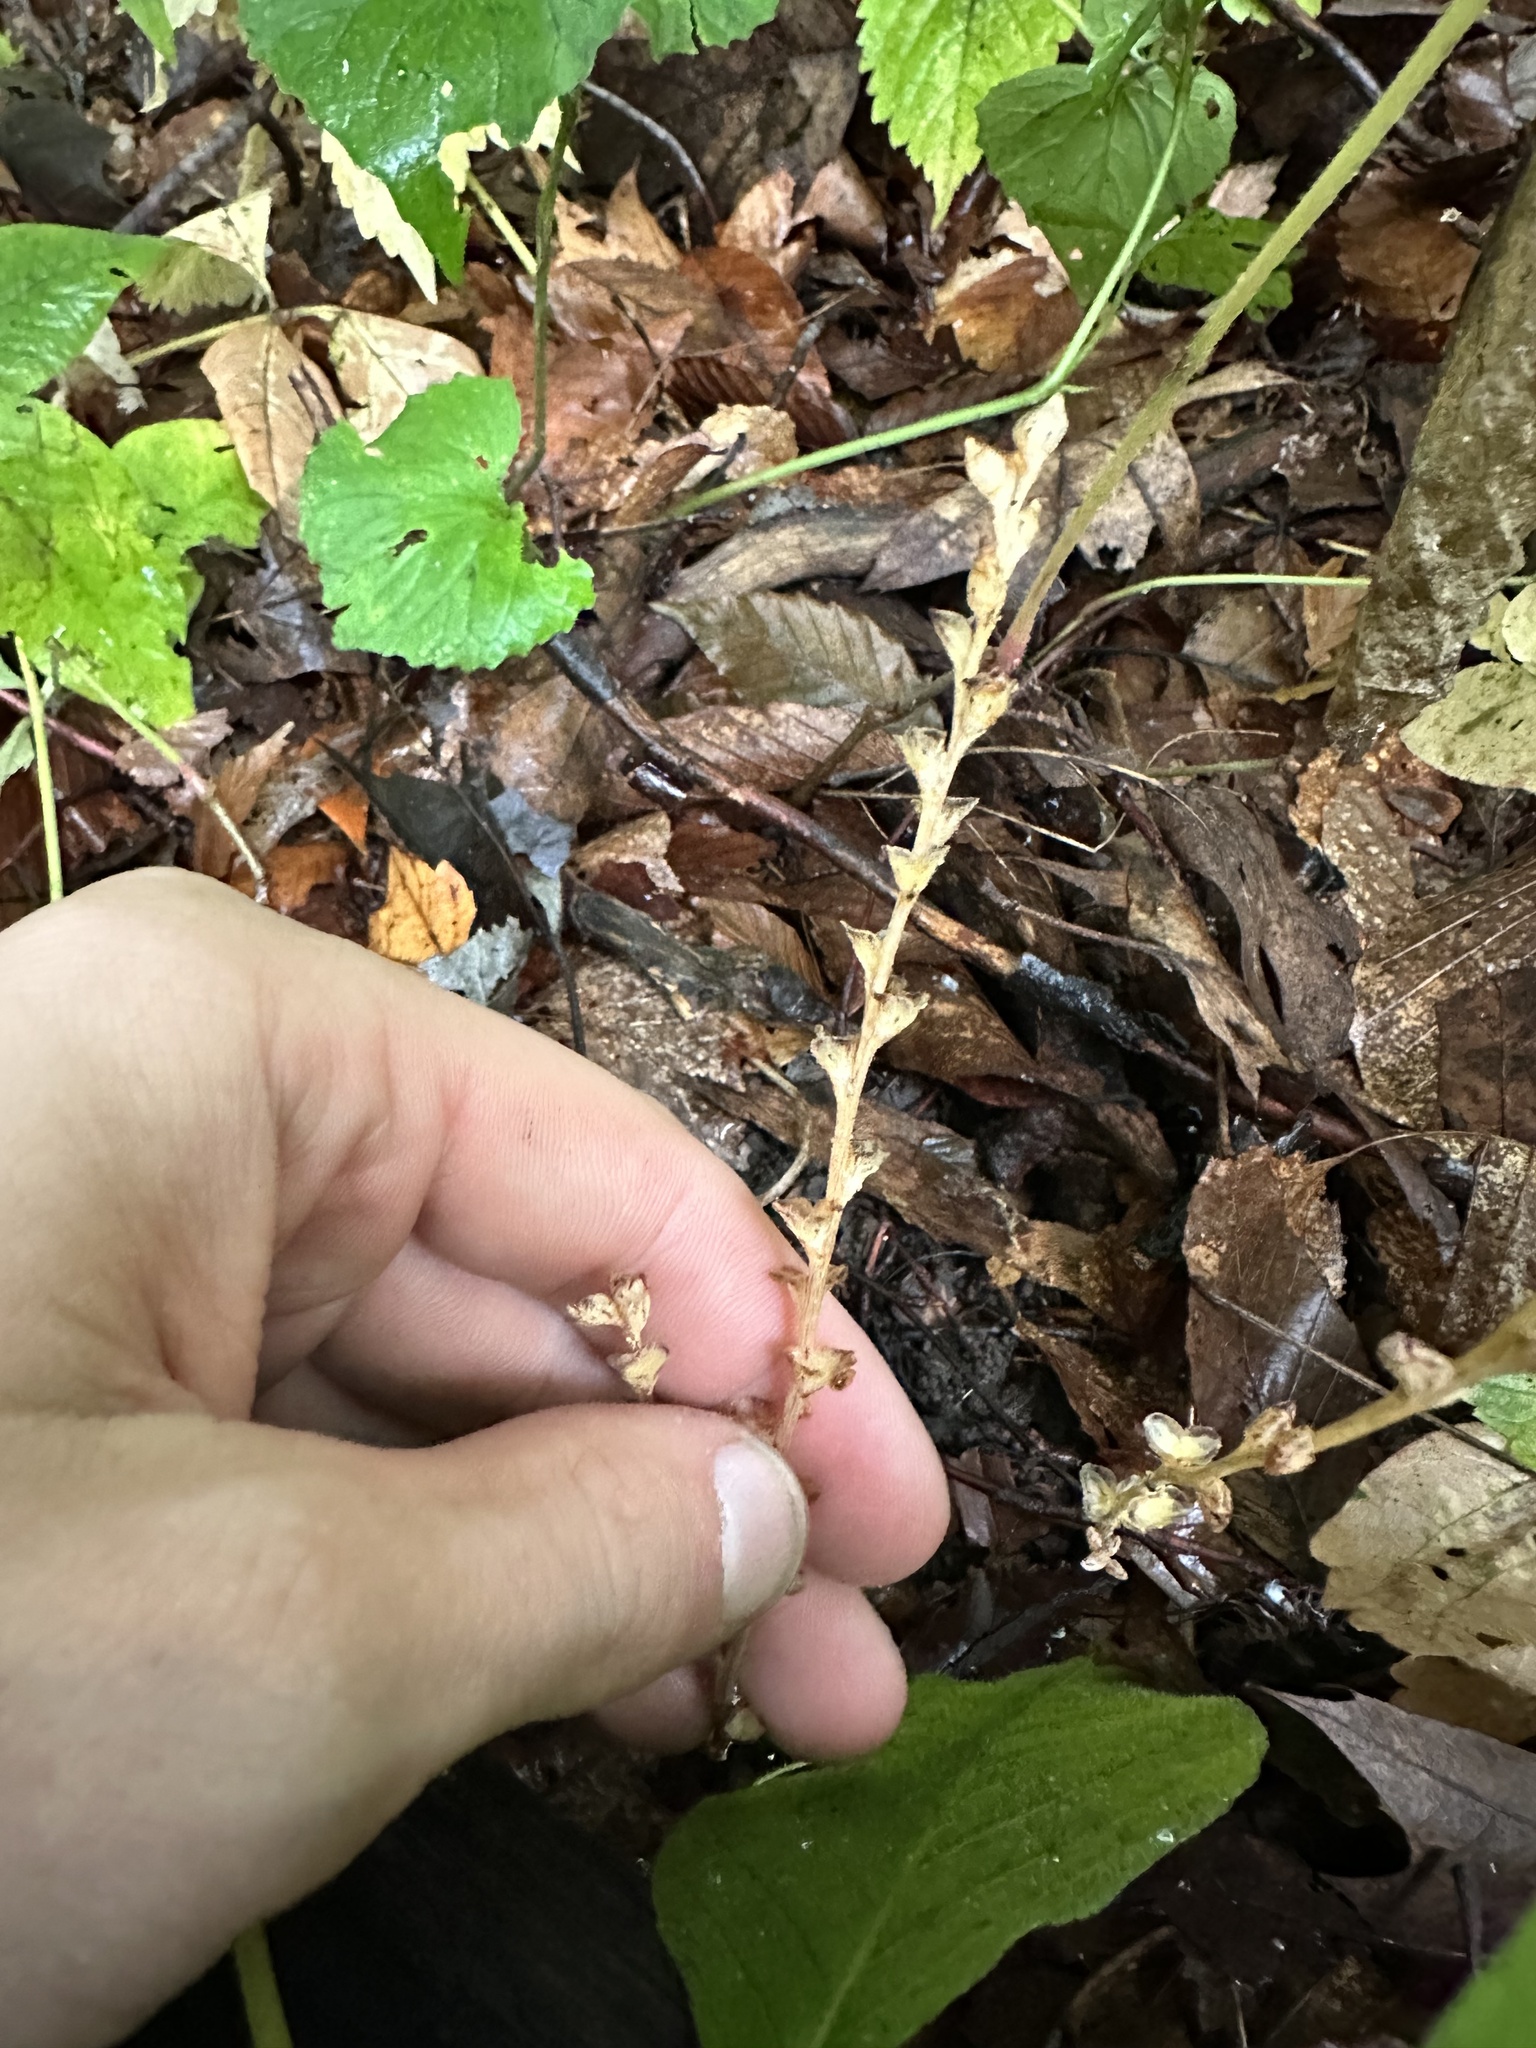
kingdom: Plantae
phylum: Tracheophyta
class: Magnoliopsida
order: Lamiales
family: Orobanchaceae
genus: Epifagus
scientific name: Epifagus virginiana
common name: Beechdrops
